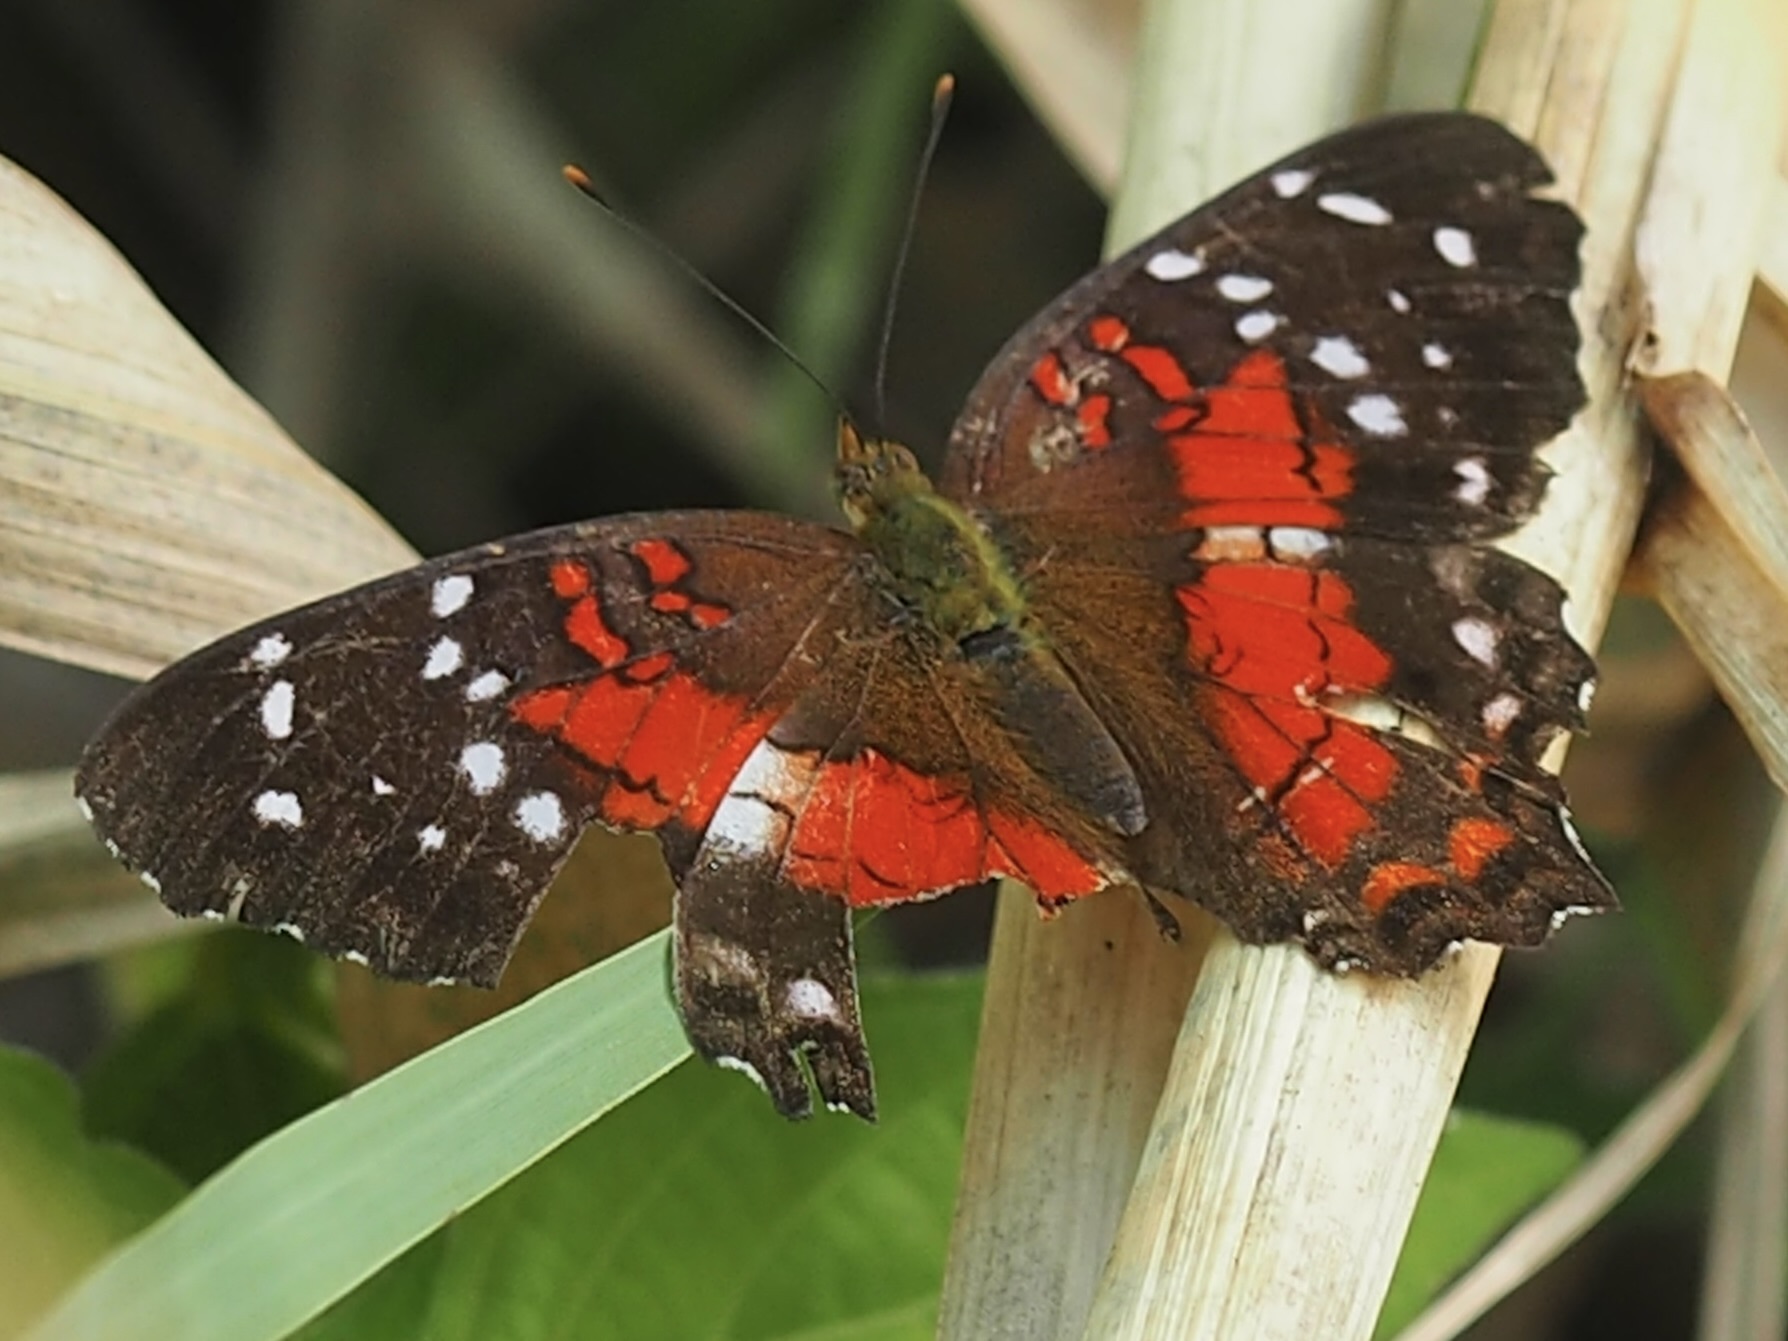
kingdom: Animalia
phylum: Arthropoda
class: Insecta
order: Lepidoptera
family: Nymphalidae
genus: Anartia
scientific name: Anartia amathea
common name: Red peacock
